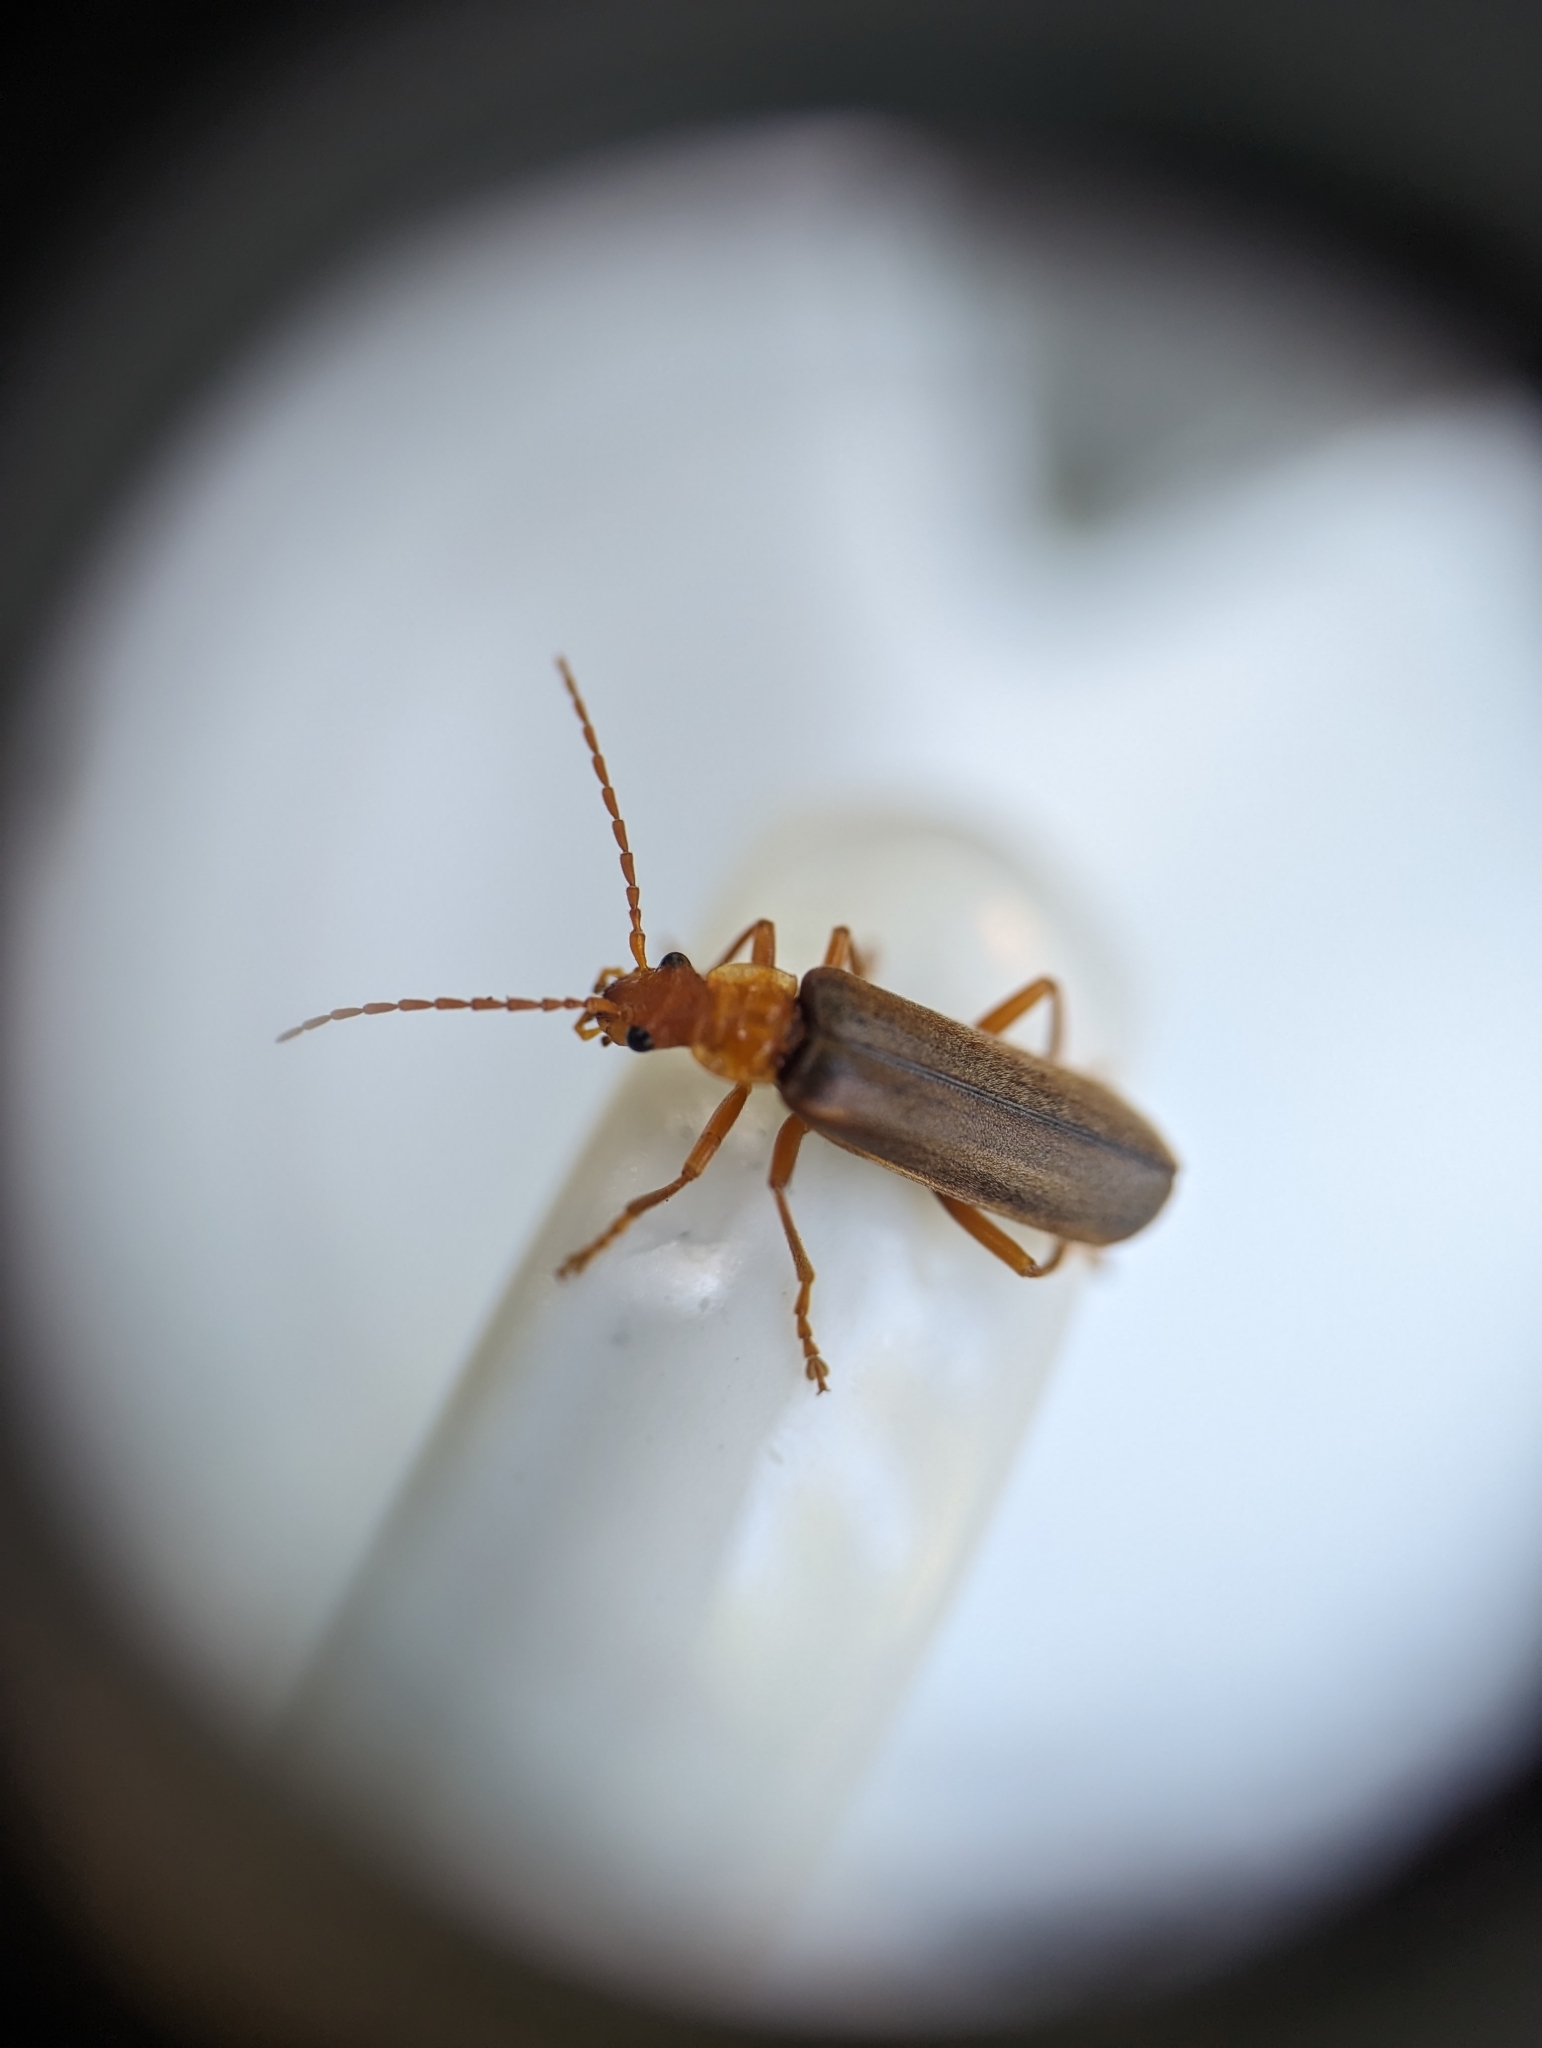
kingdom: Animalia
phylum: Arthropoda
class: Insecta
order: Coleoptera
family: Cantharidae
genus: Podabrus
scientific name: Podabrus pruinosus
